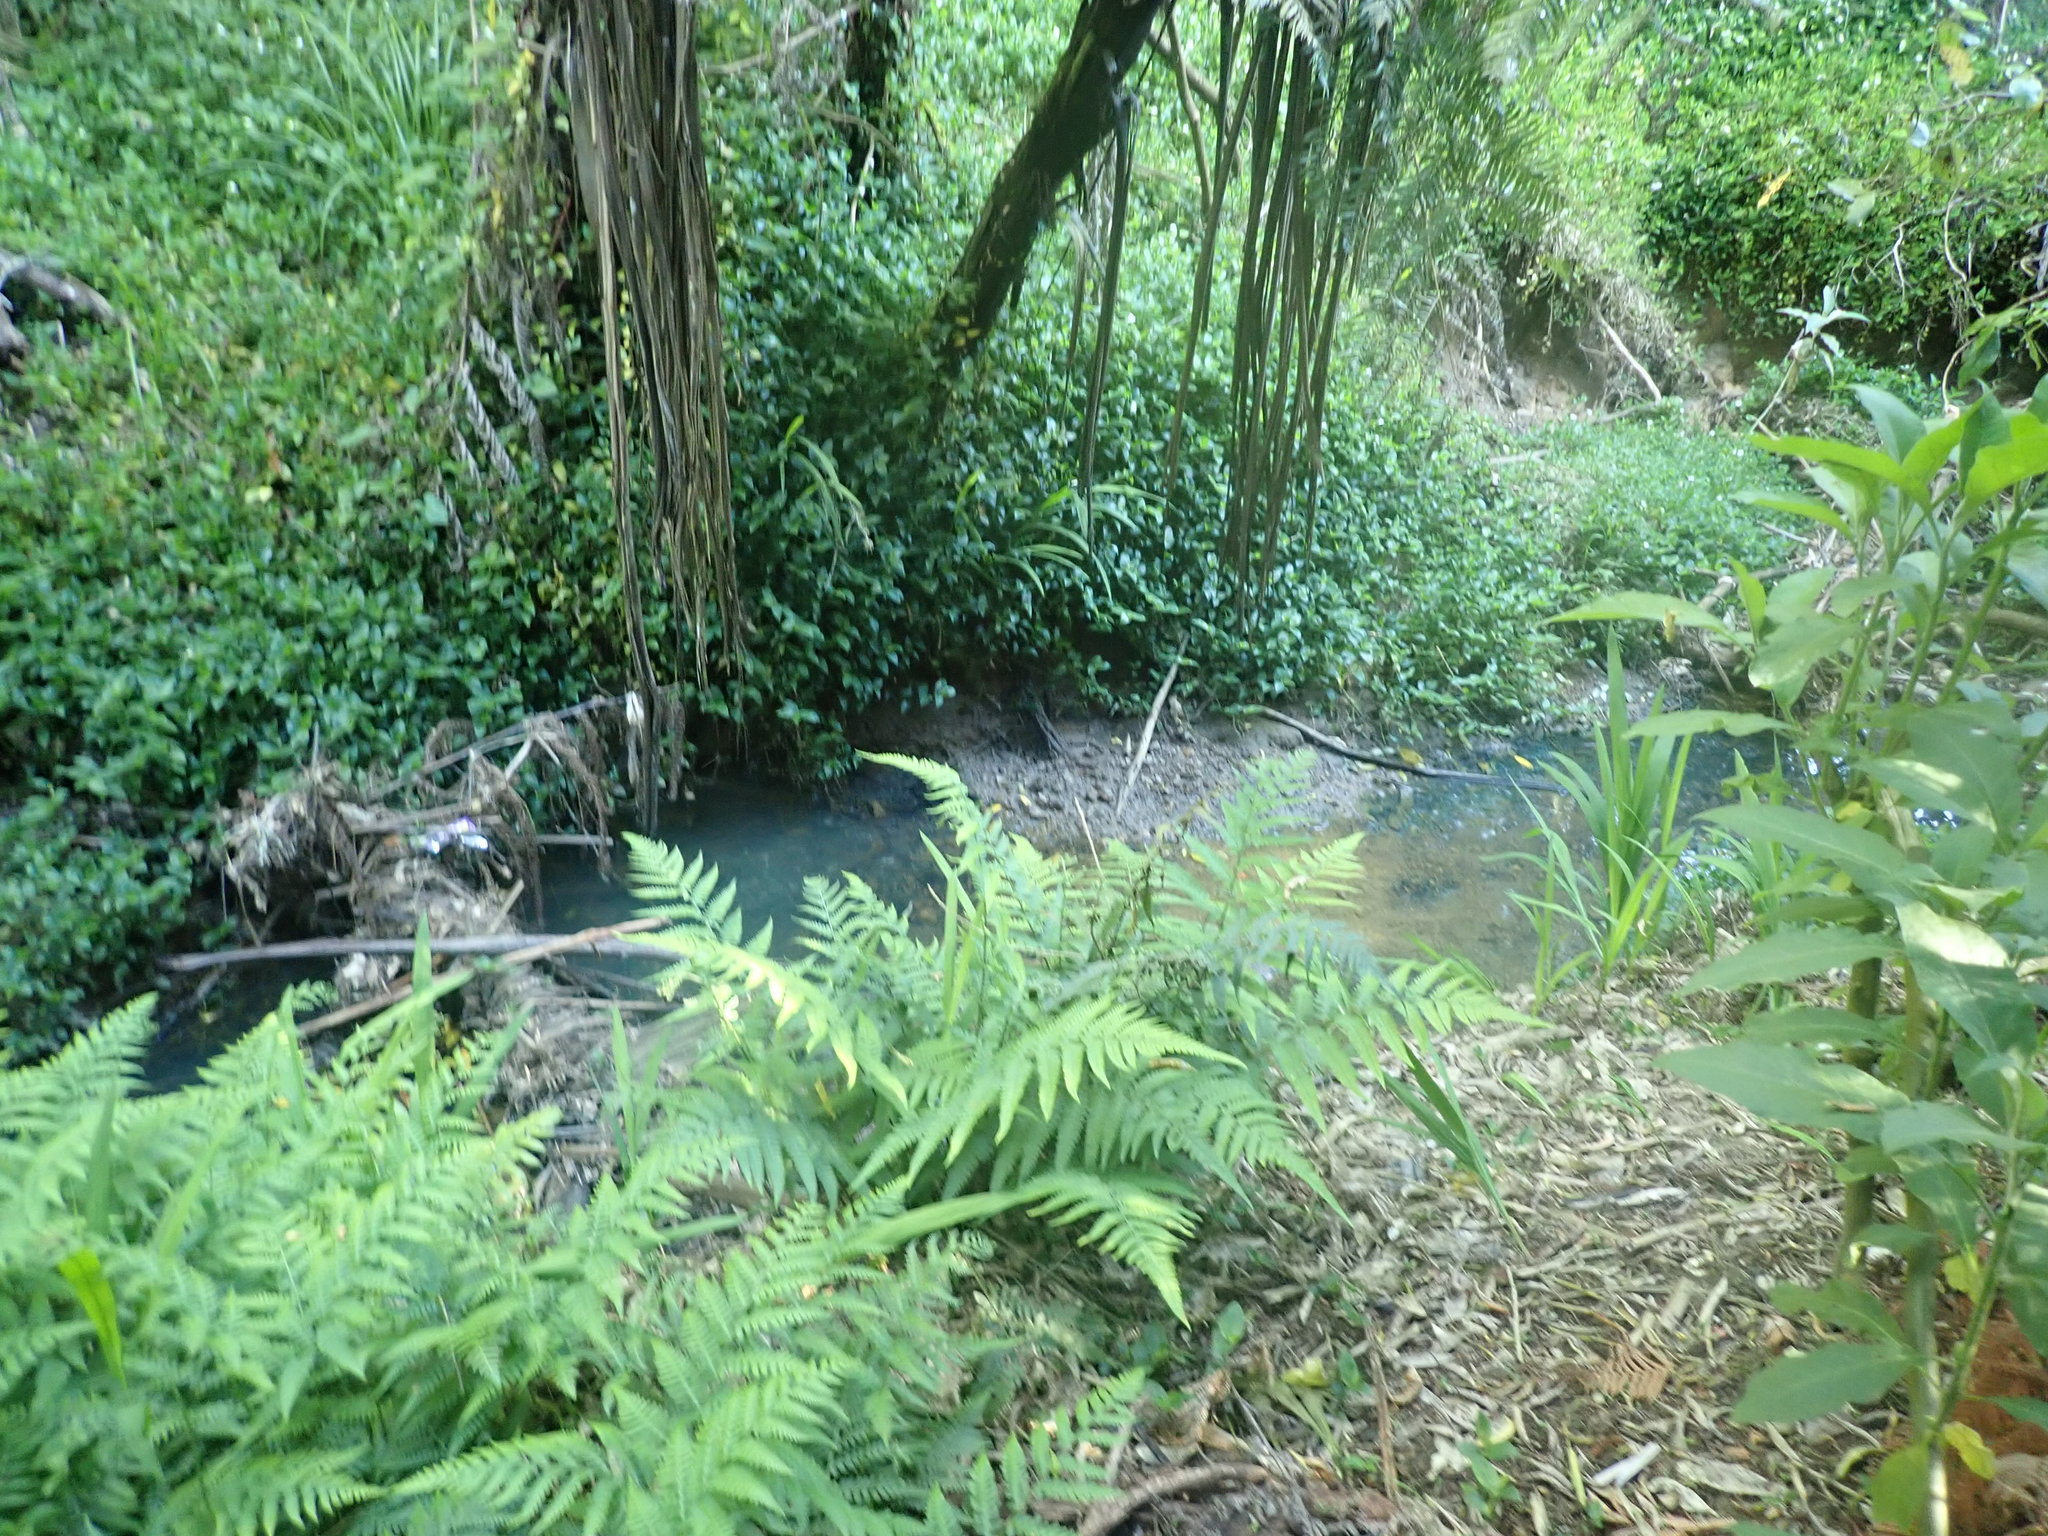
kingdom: Plantae
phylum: Tracheophyta
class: Polypodiopsida
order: Polypodiales
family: Athyriaceae
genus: Diplazium
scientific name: Diplazium congruum
